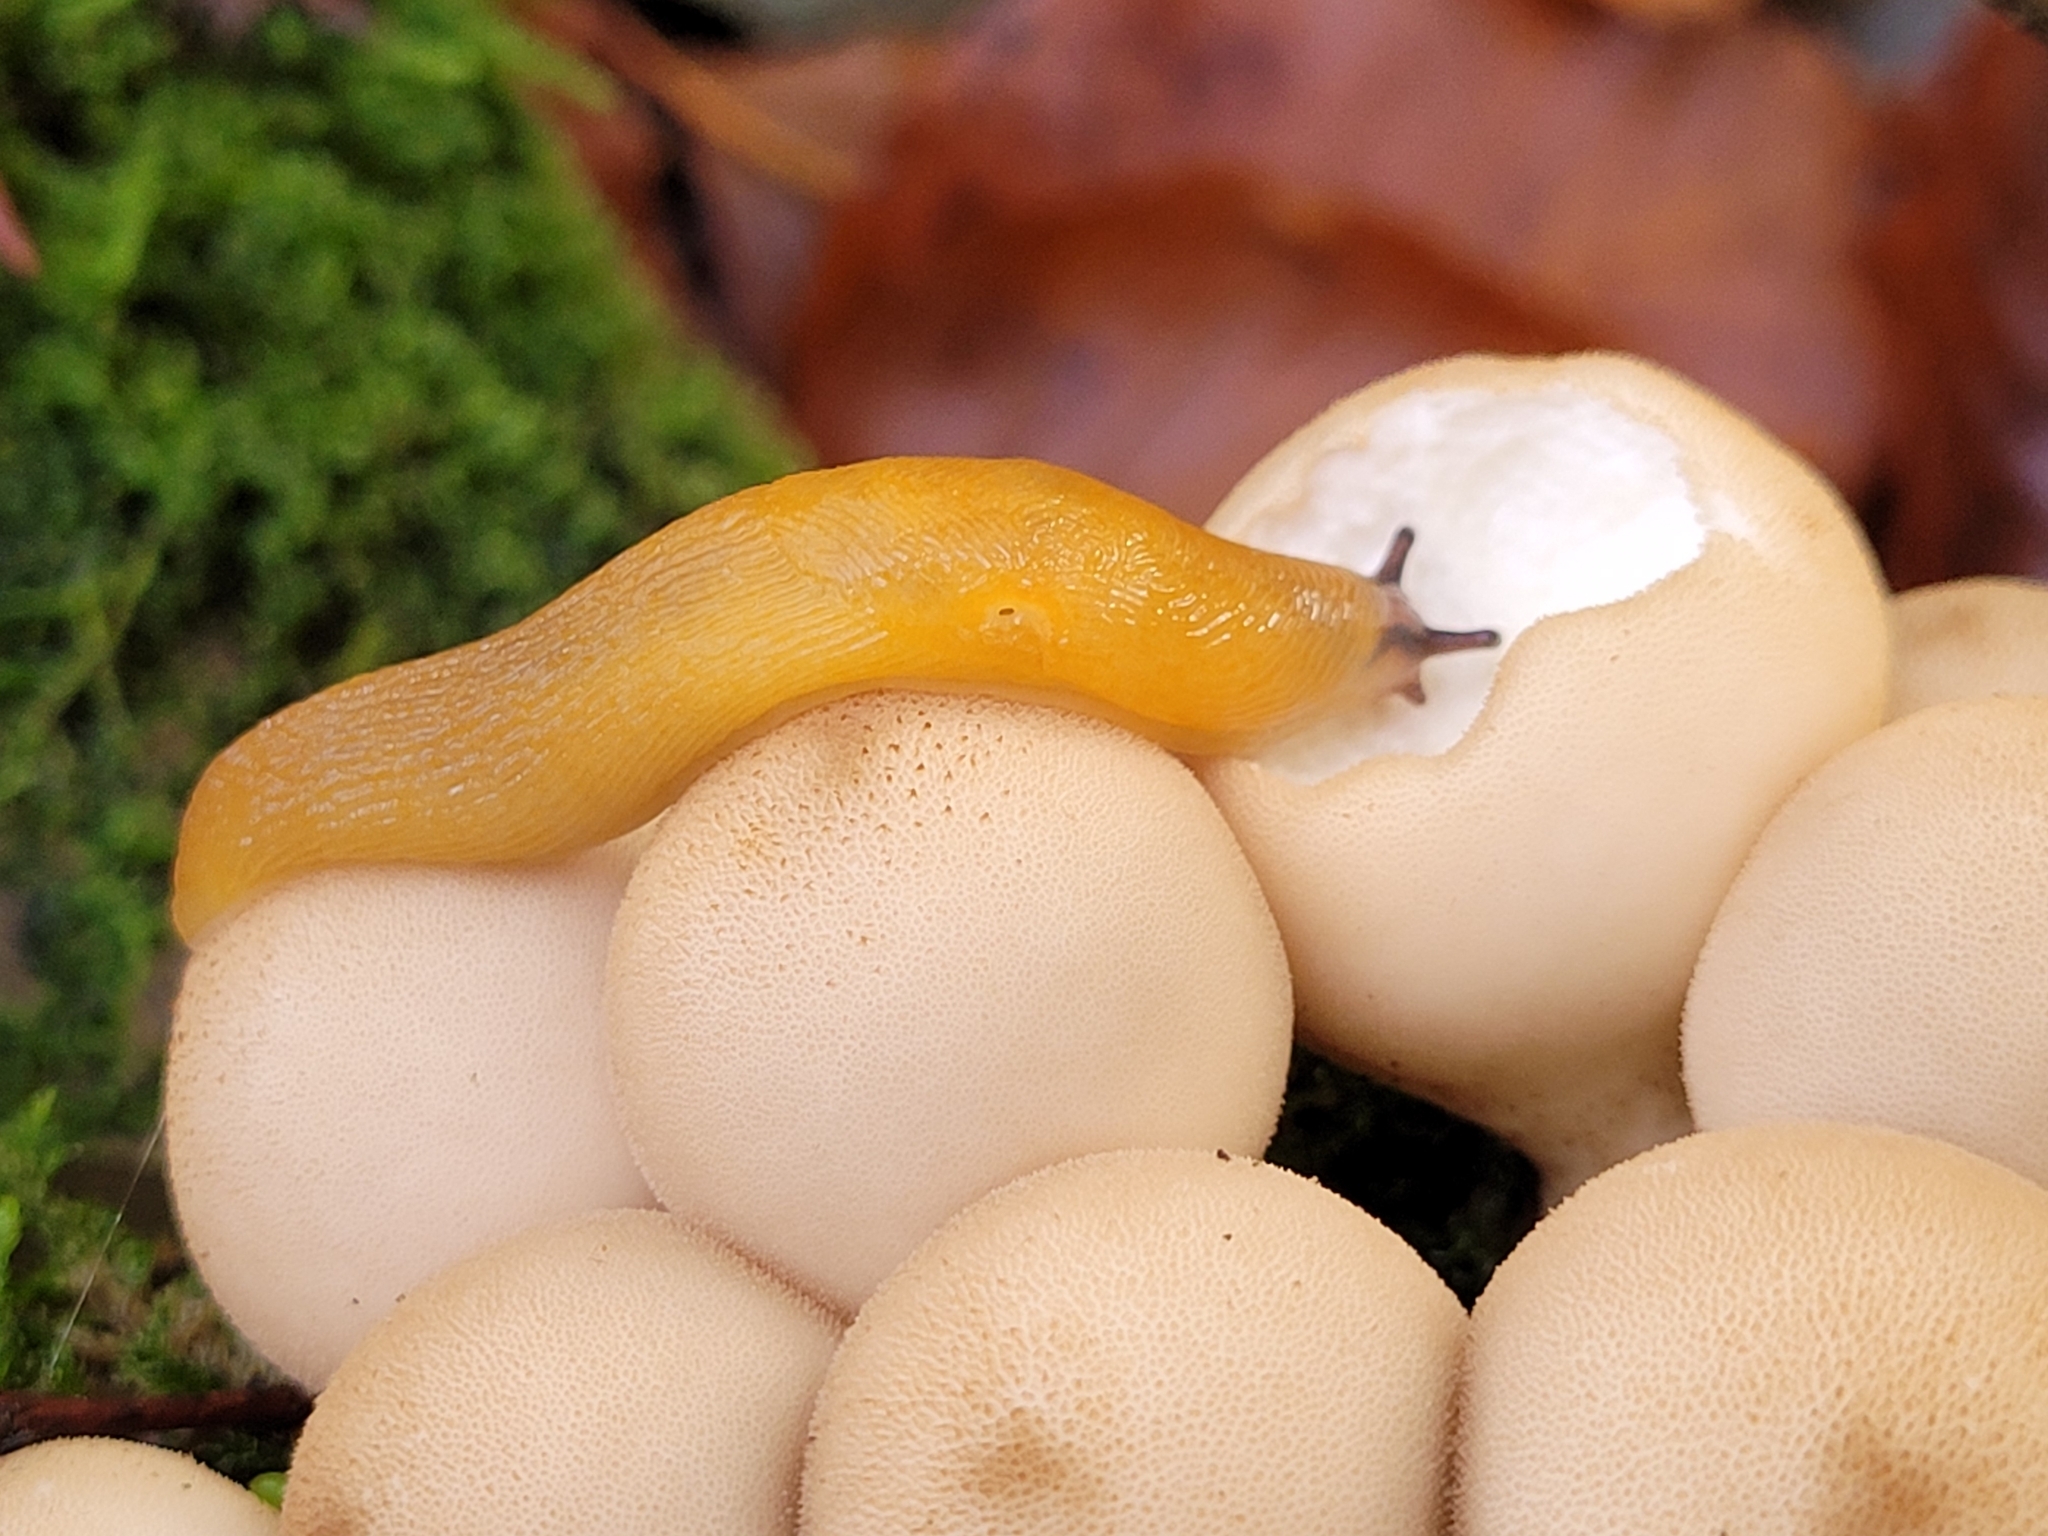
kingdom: Animalia
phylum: Mollusca
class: Gastropoda
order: Stylommatophora
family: Limacidae
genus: Malacolimax
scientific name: Malacolimax tenellus
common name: Lemon slug
